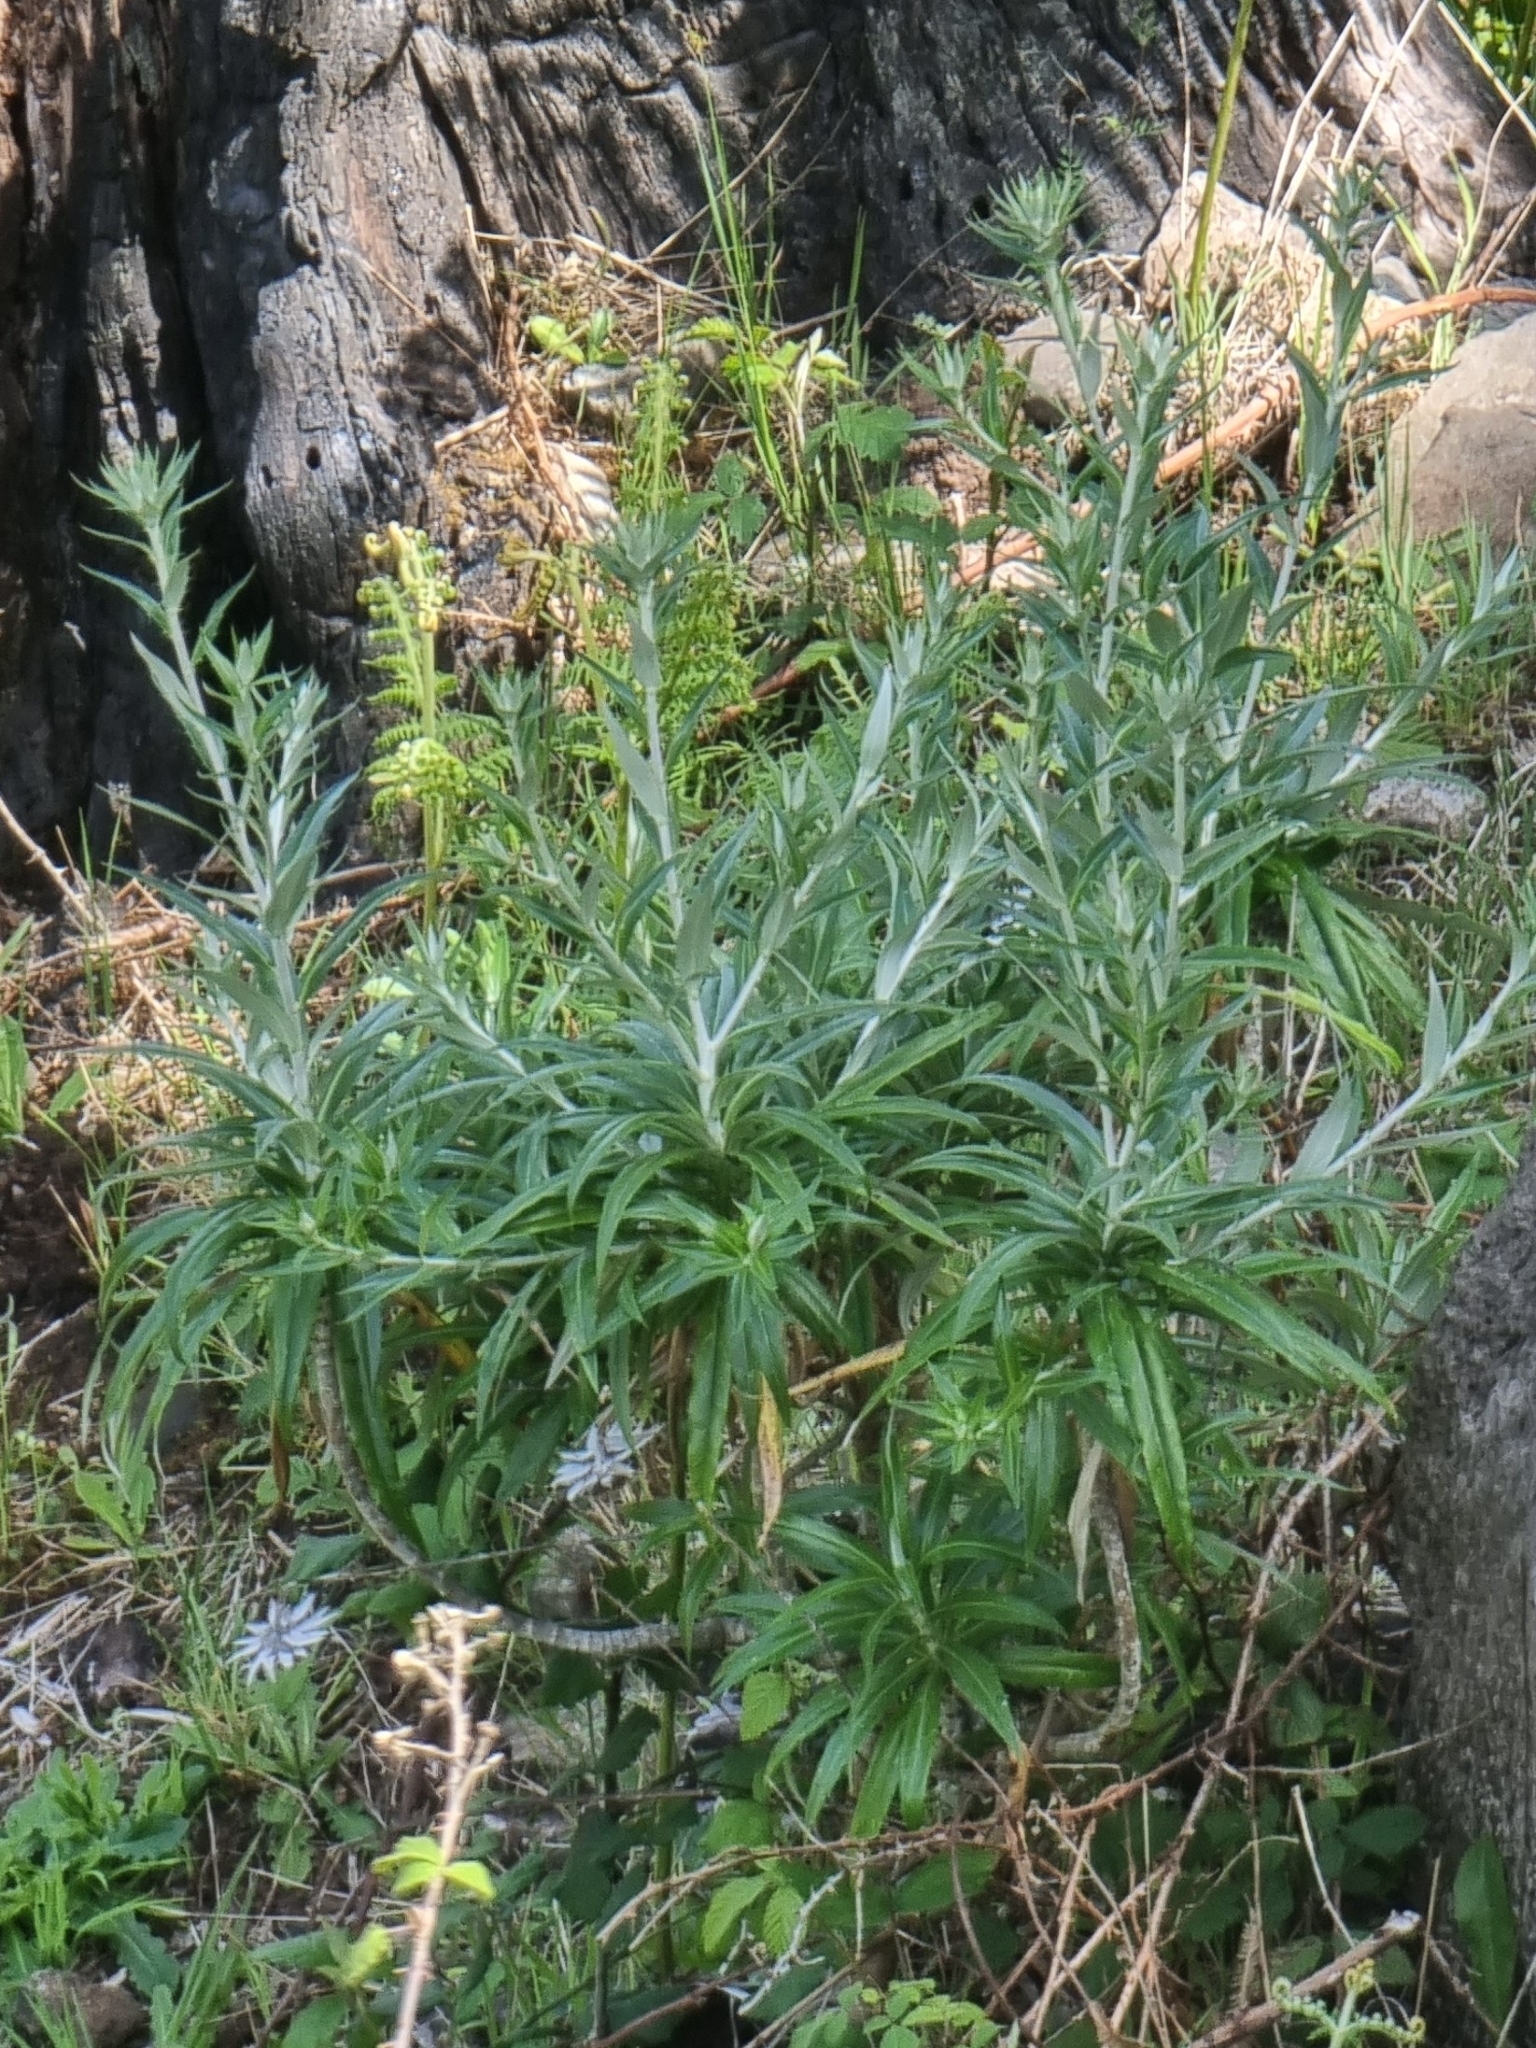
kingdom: Plantae
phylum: Tracheophyta
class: Magnoliopsida
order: Asterales
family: Asteraceae
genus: Carlina
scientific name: Carlina salicifolia
